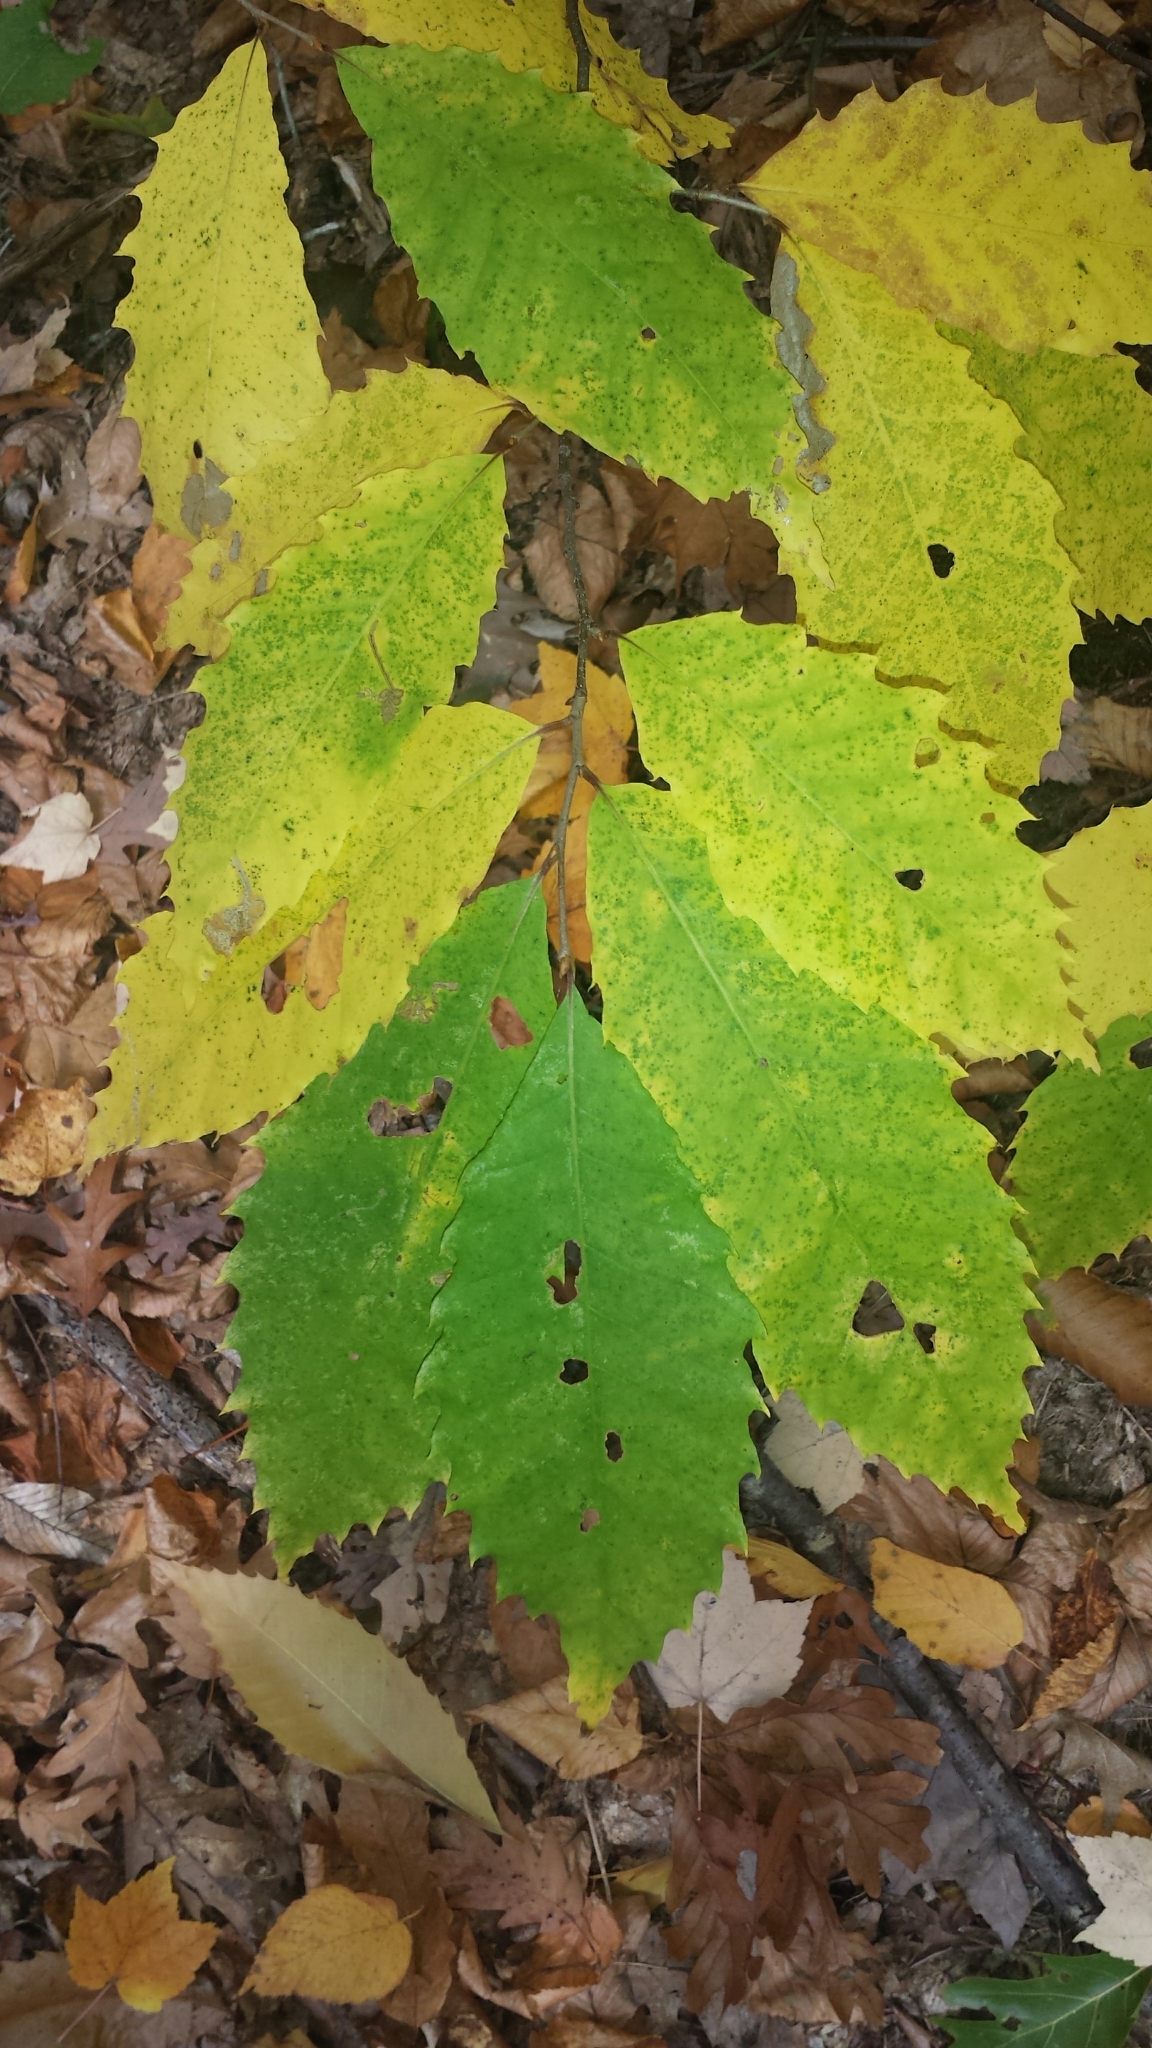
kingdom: Plantae
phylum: Tracheophyta
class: Magnoliopsida
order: Fagales
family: Fagaceae
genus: Castanea
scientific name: Castanea dentata
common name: American chestnut
